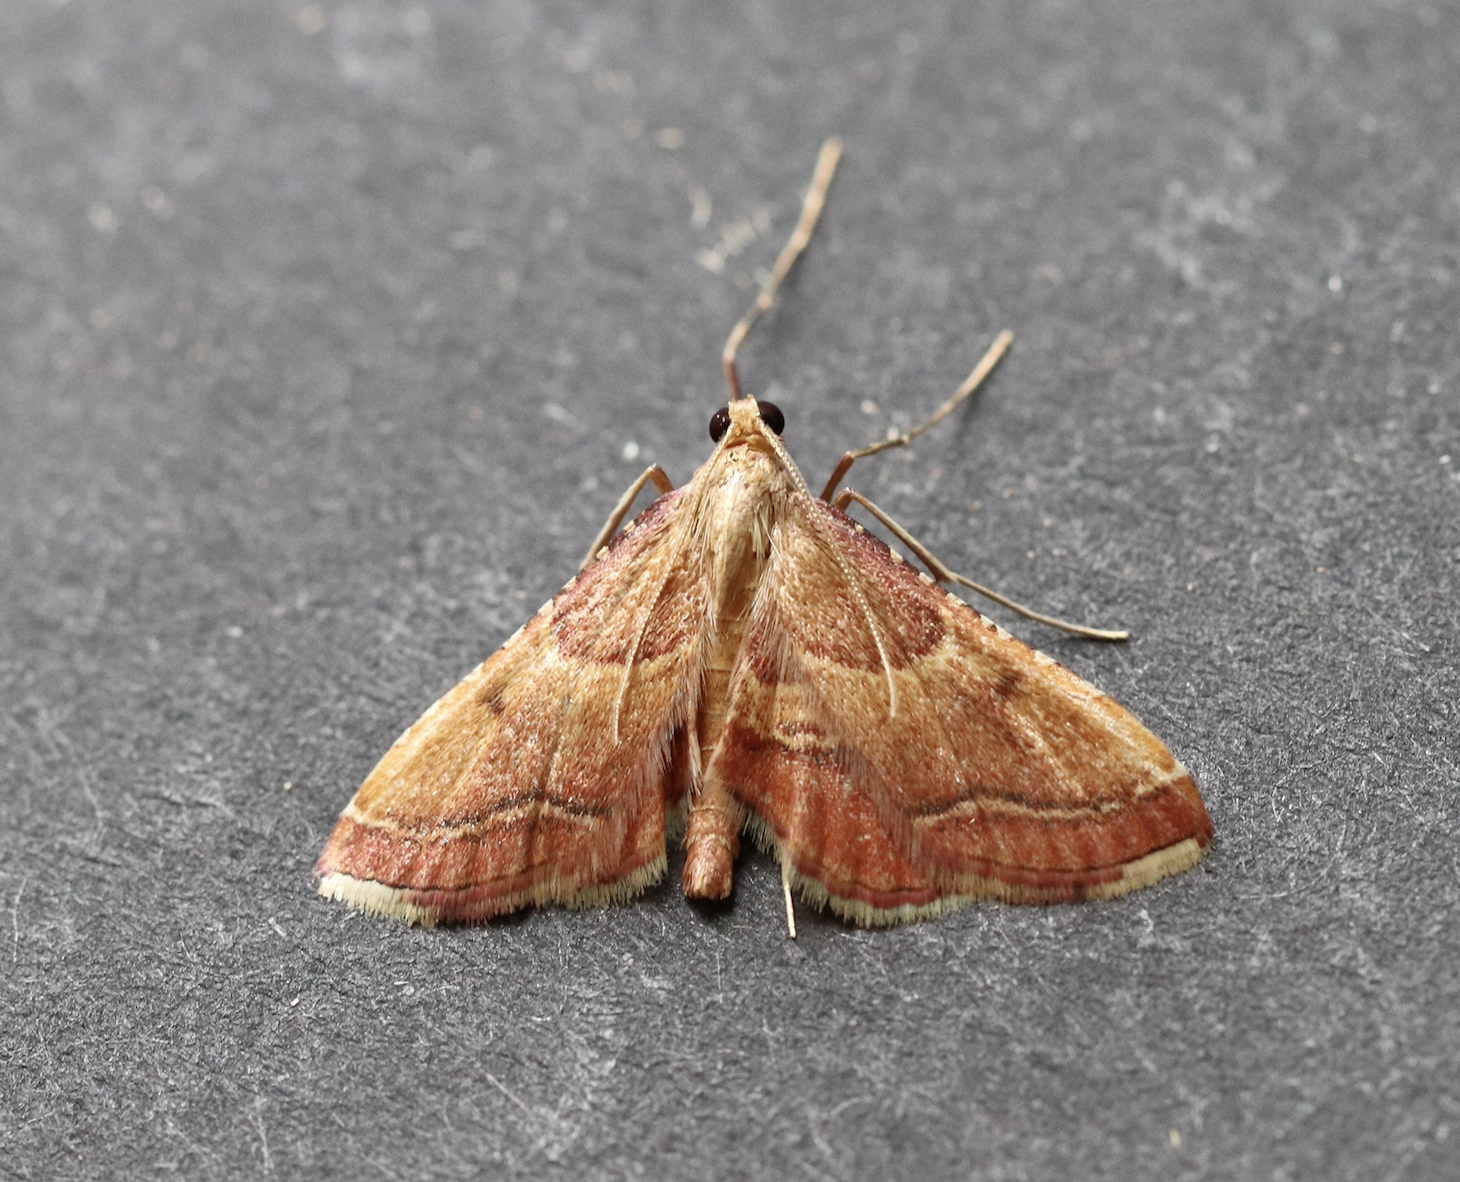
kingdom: Animalia
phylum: Arthropoda
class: Insecta
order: Lepidoptera
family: Pyralidae
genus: Endotricha
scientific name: Endotricha flammealis
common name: Rosy tabby
